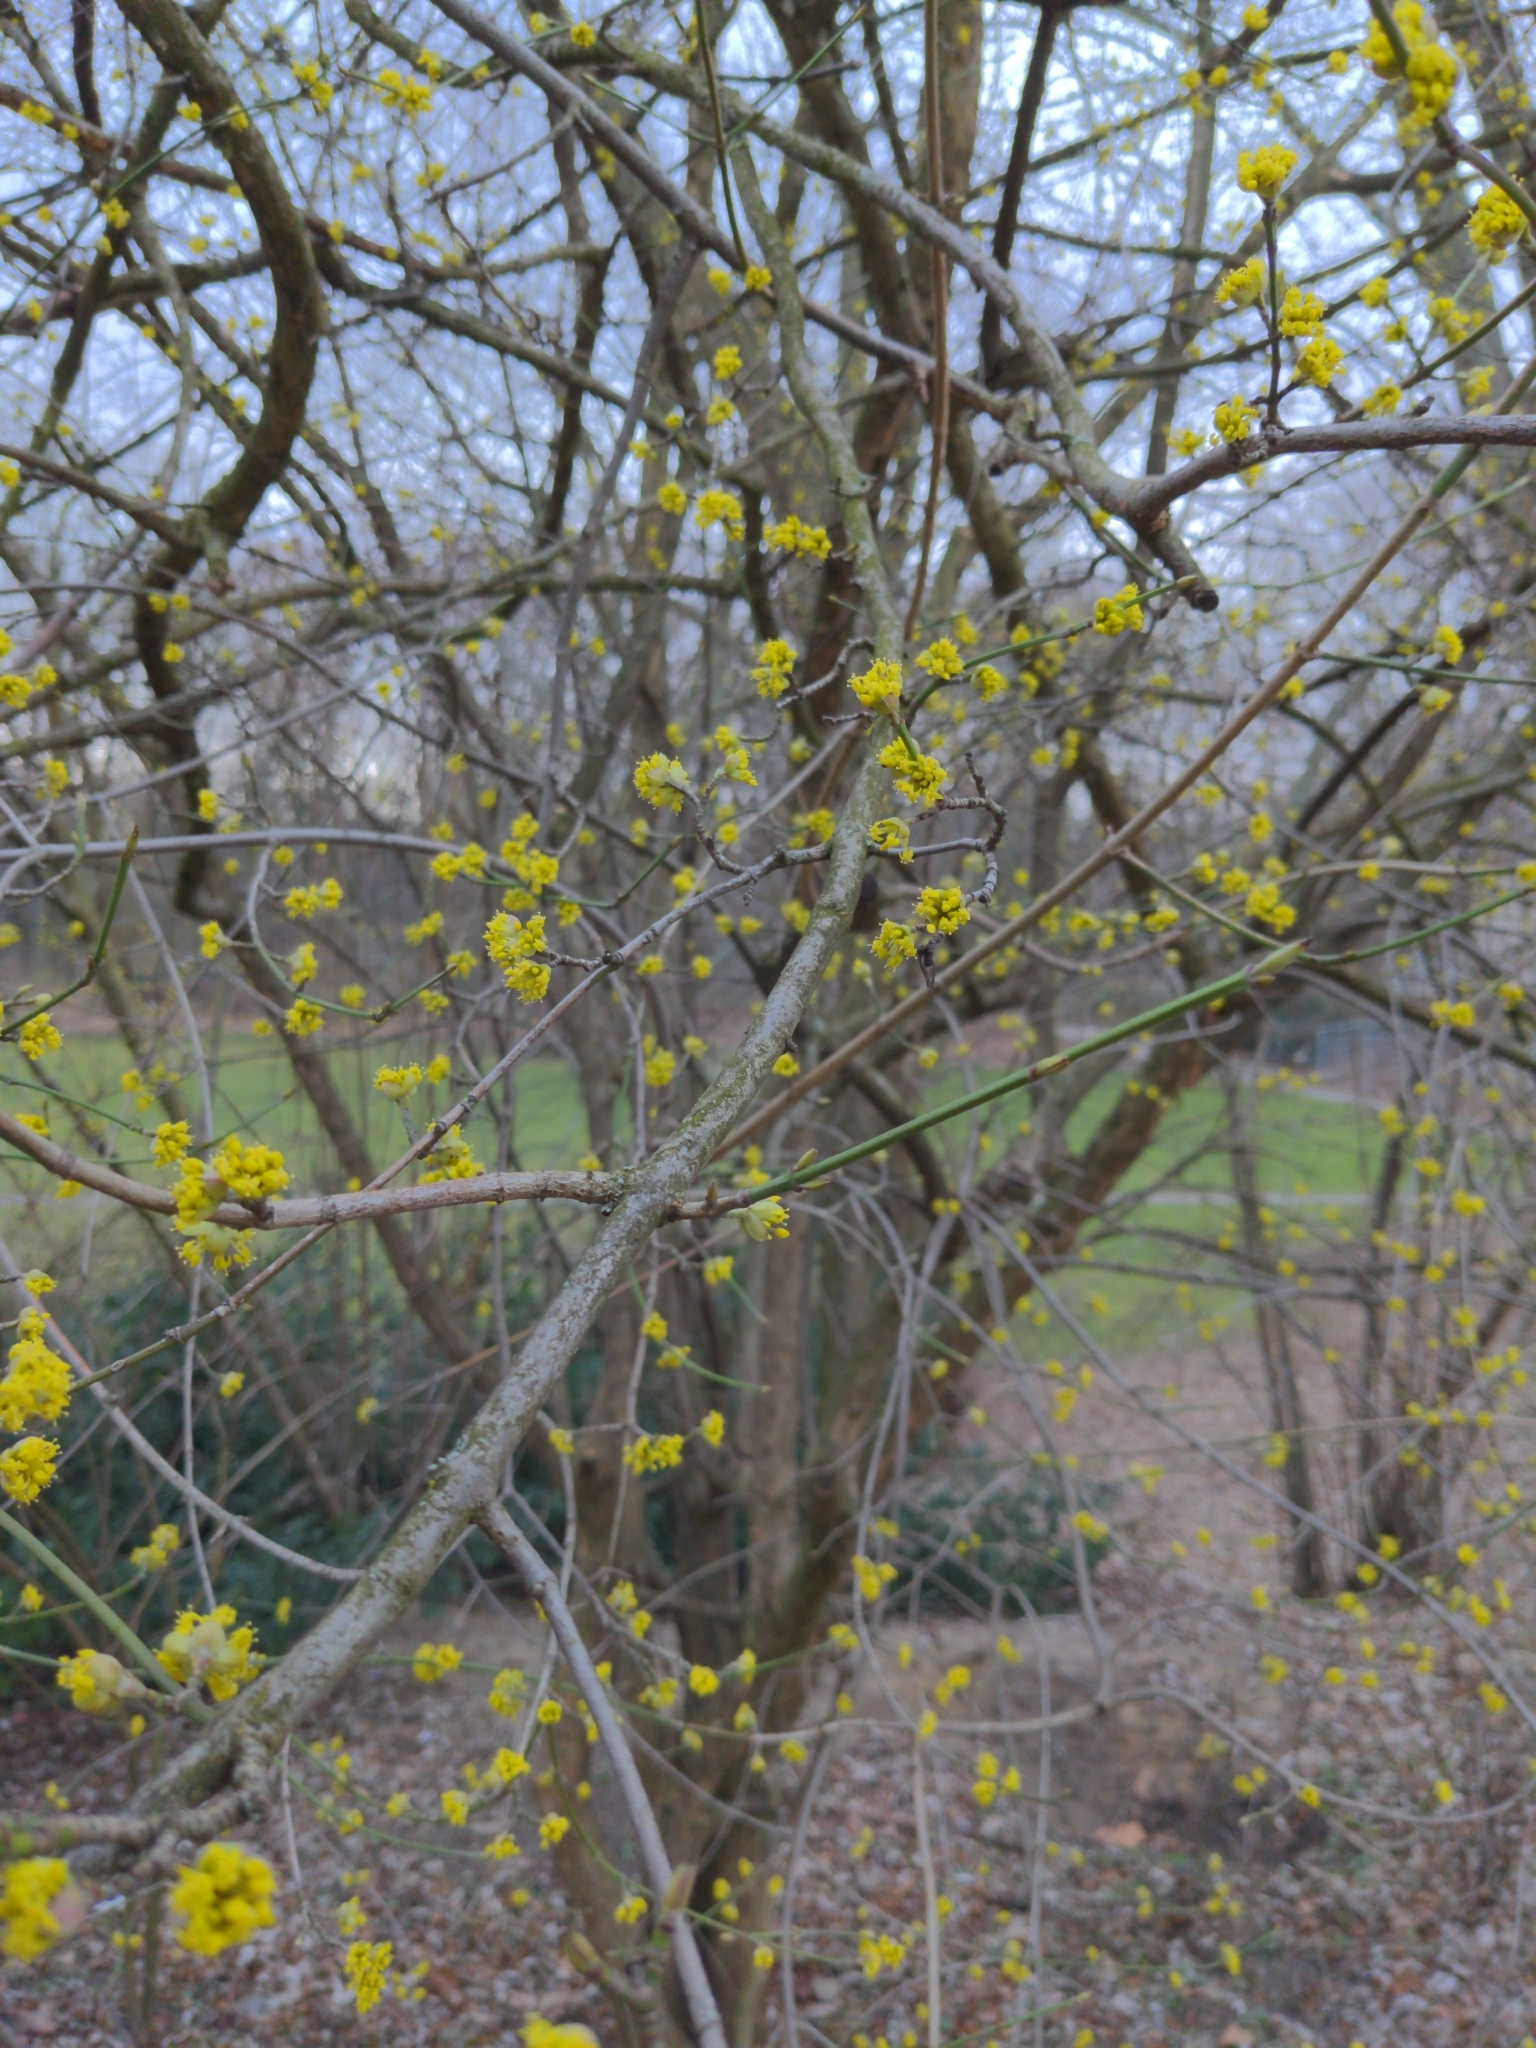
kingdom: Plantae
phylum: Tracheophyta
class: Magnoliopsida
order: Cornales
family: Cornaceae
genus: Cornus
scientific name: Cornus mas
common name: Cornelian-cherry
